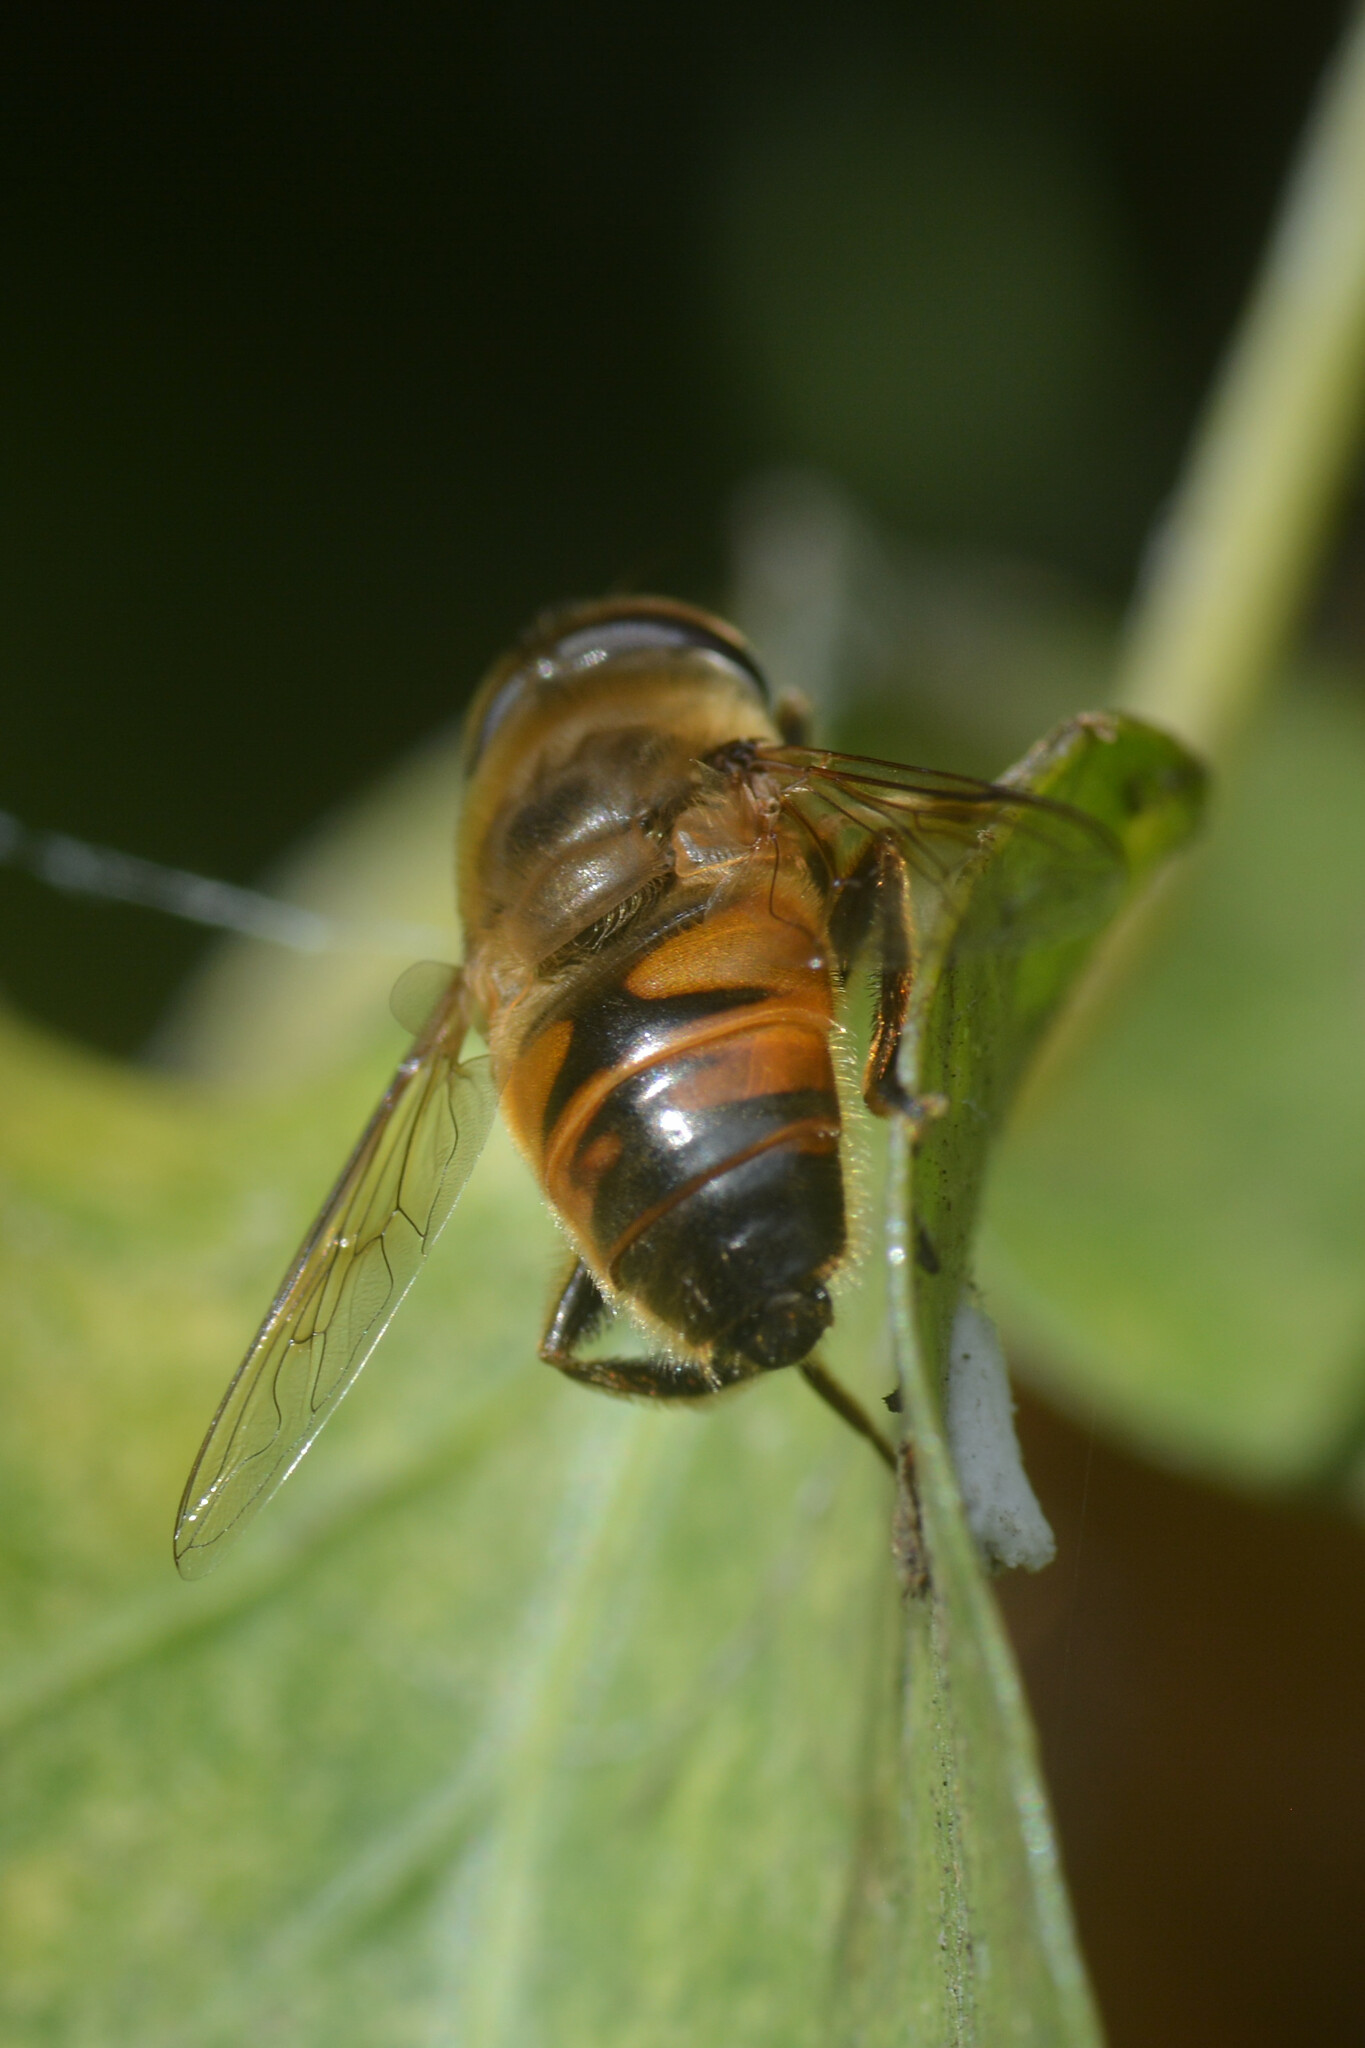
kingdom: Animalia
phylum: Arthropoda
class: Insecta
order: Diptera
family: Syrphidae
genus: Eristalis
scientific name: Eristalis tenax
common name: Drone fly
